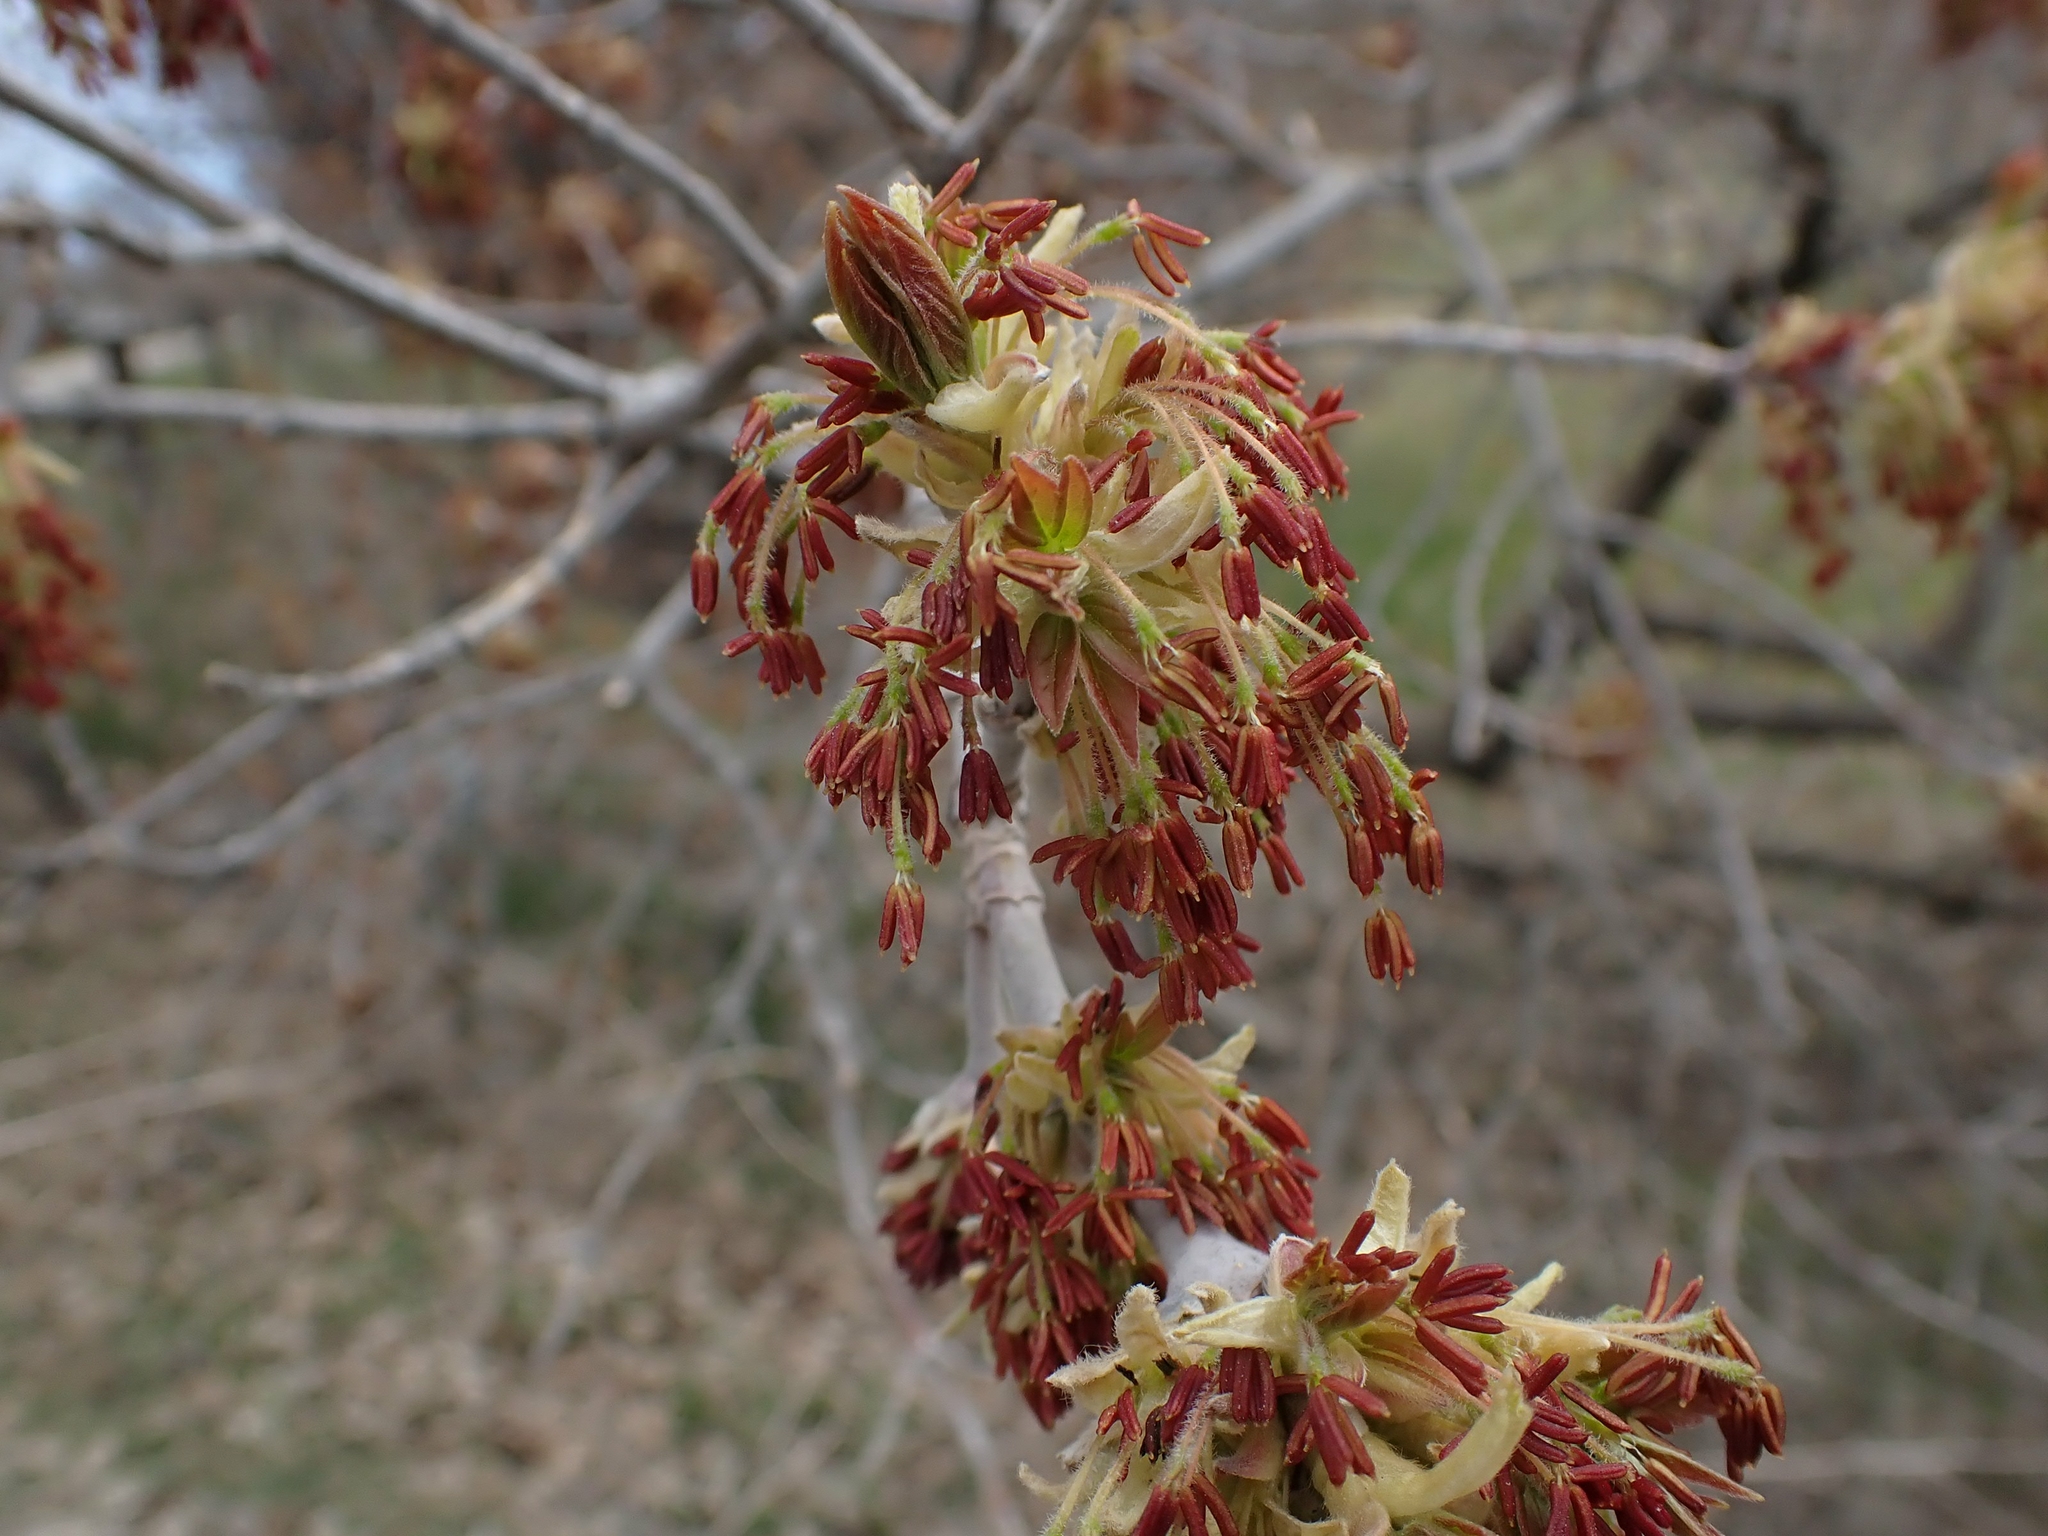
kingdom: Plantae
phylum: Tracheophyta
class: Magnoliopsida
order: Sapindales
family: Sapindaceae
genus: Acer
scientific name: Acer negundo
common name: Ashleaf maple
